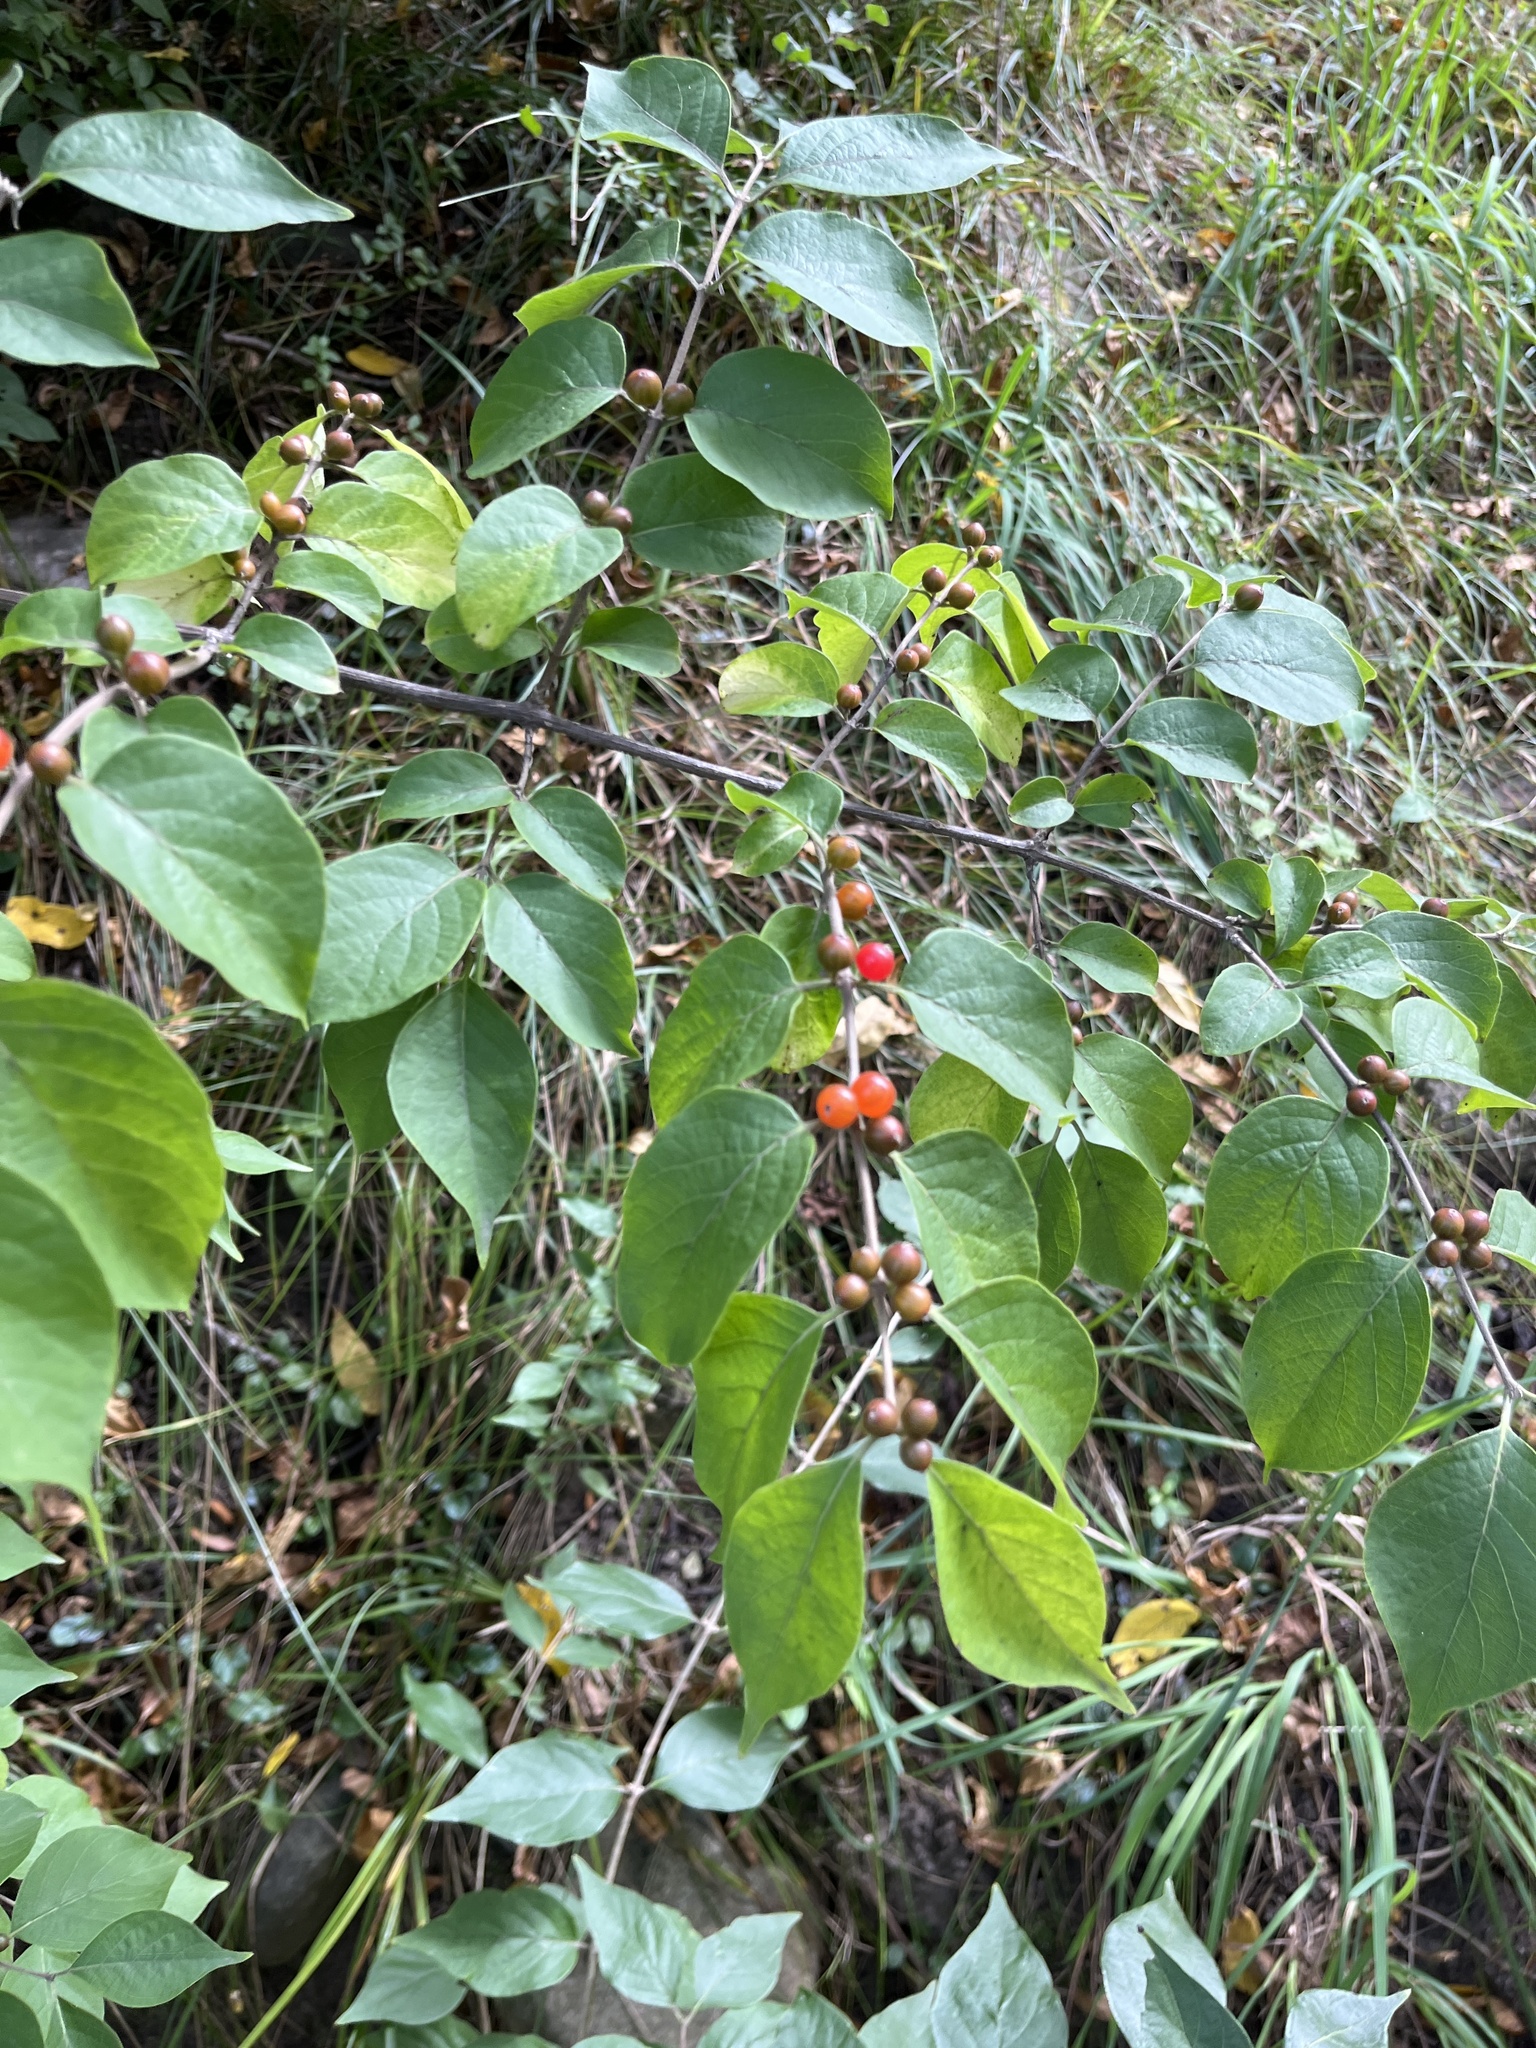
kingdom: Plantae
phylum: Tracheophyta
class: Magnoliopsida
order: Dipsacales
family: Caprifoliaceae
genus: Lonicera
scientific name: Lonicera maackii
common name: Amur honeysuckle
